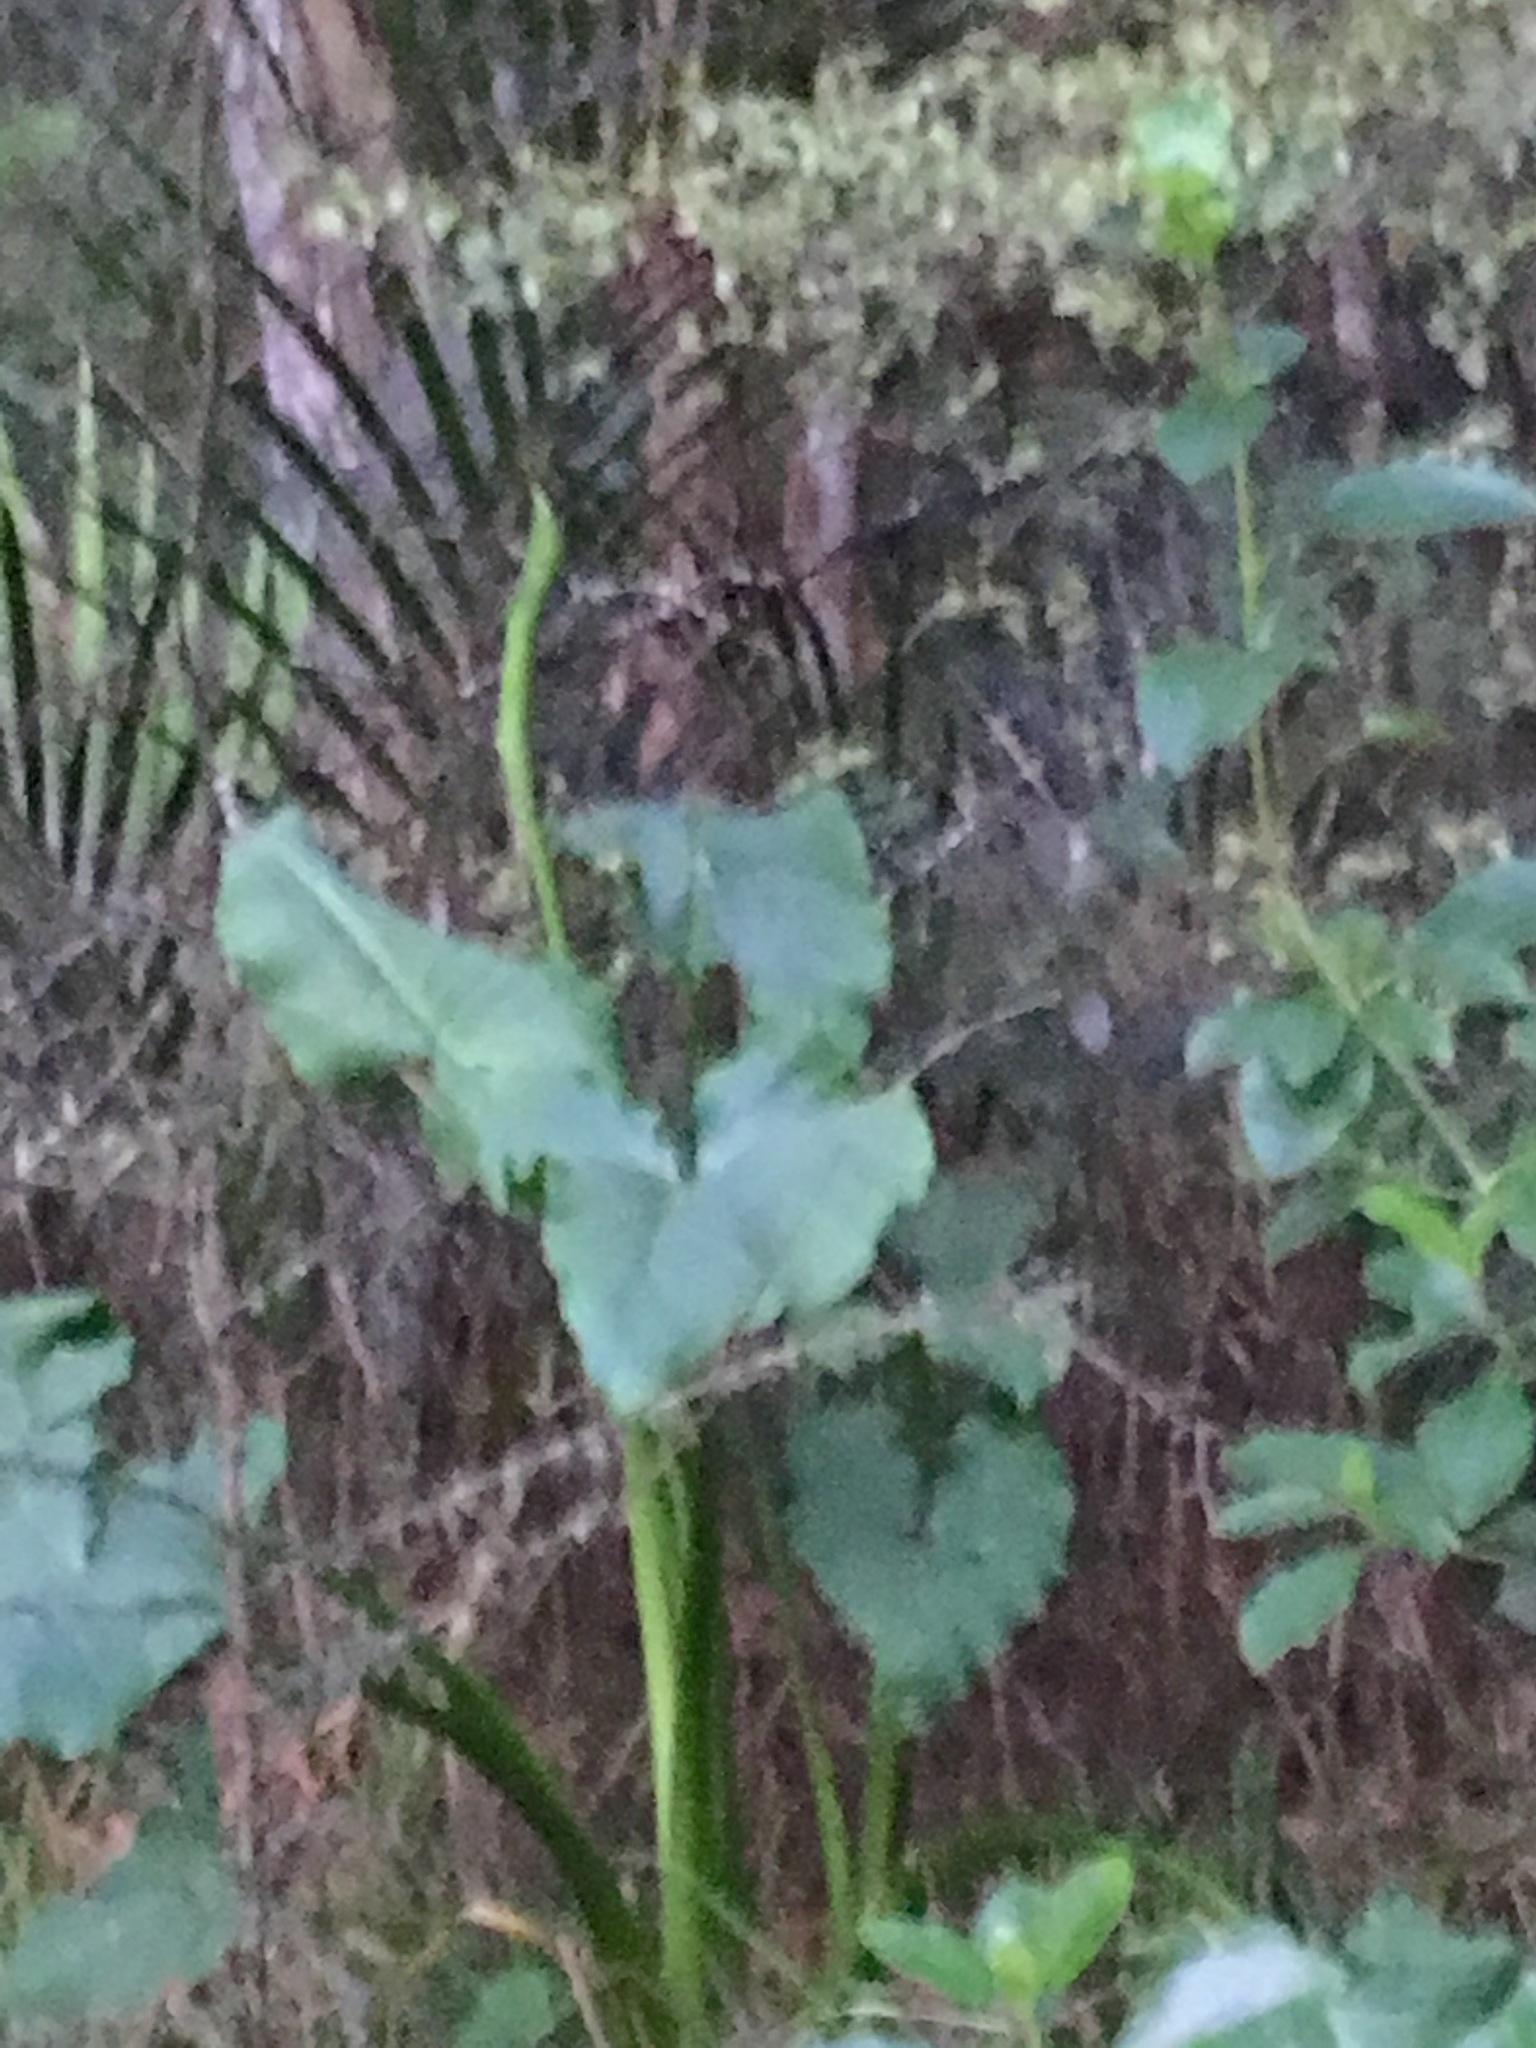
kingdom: Plantae
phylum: Tracheophyta
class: Liliopsida
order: Alismatales
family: Araceae
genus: Zantedeschia
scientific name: Zantedeschia aethiopica
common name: Altar-lily
